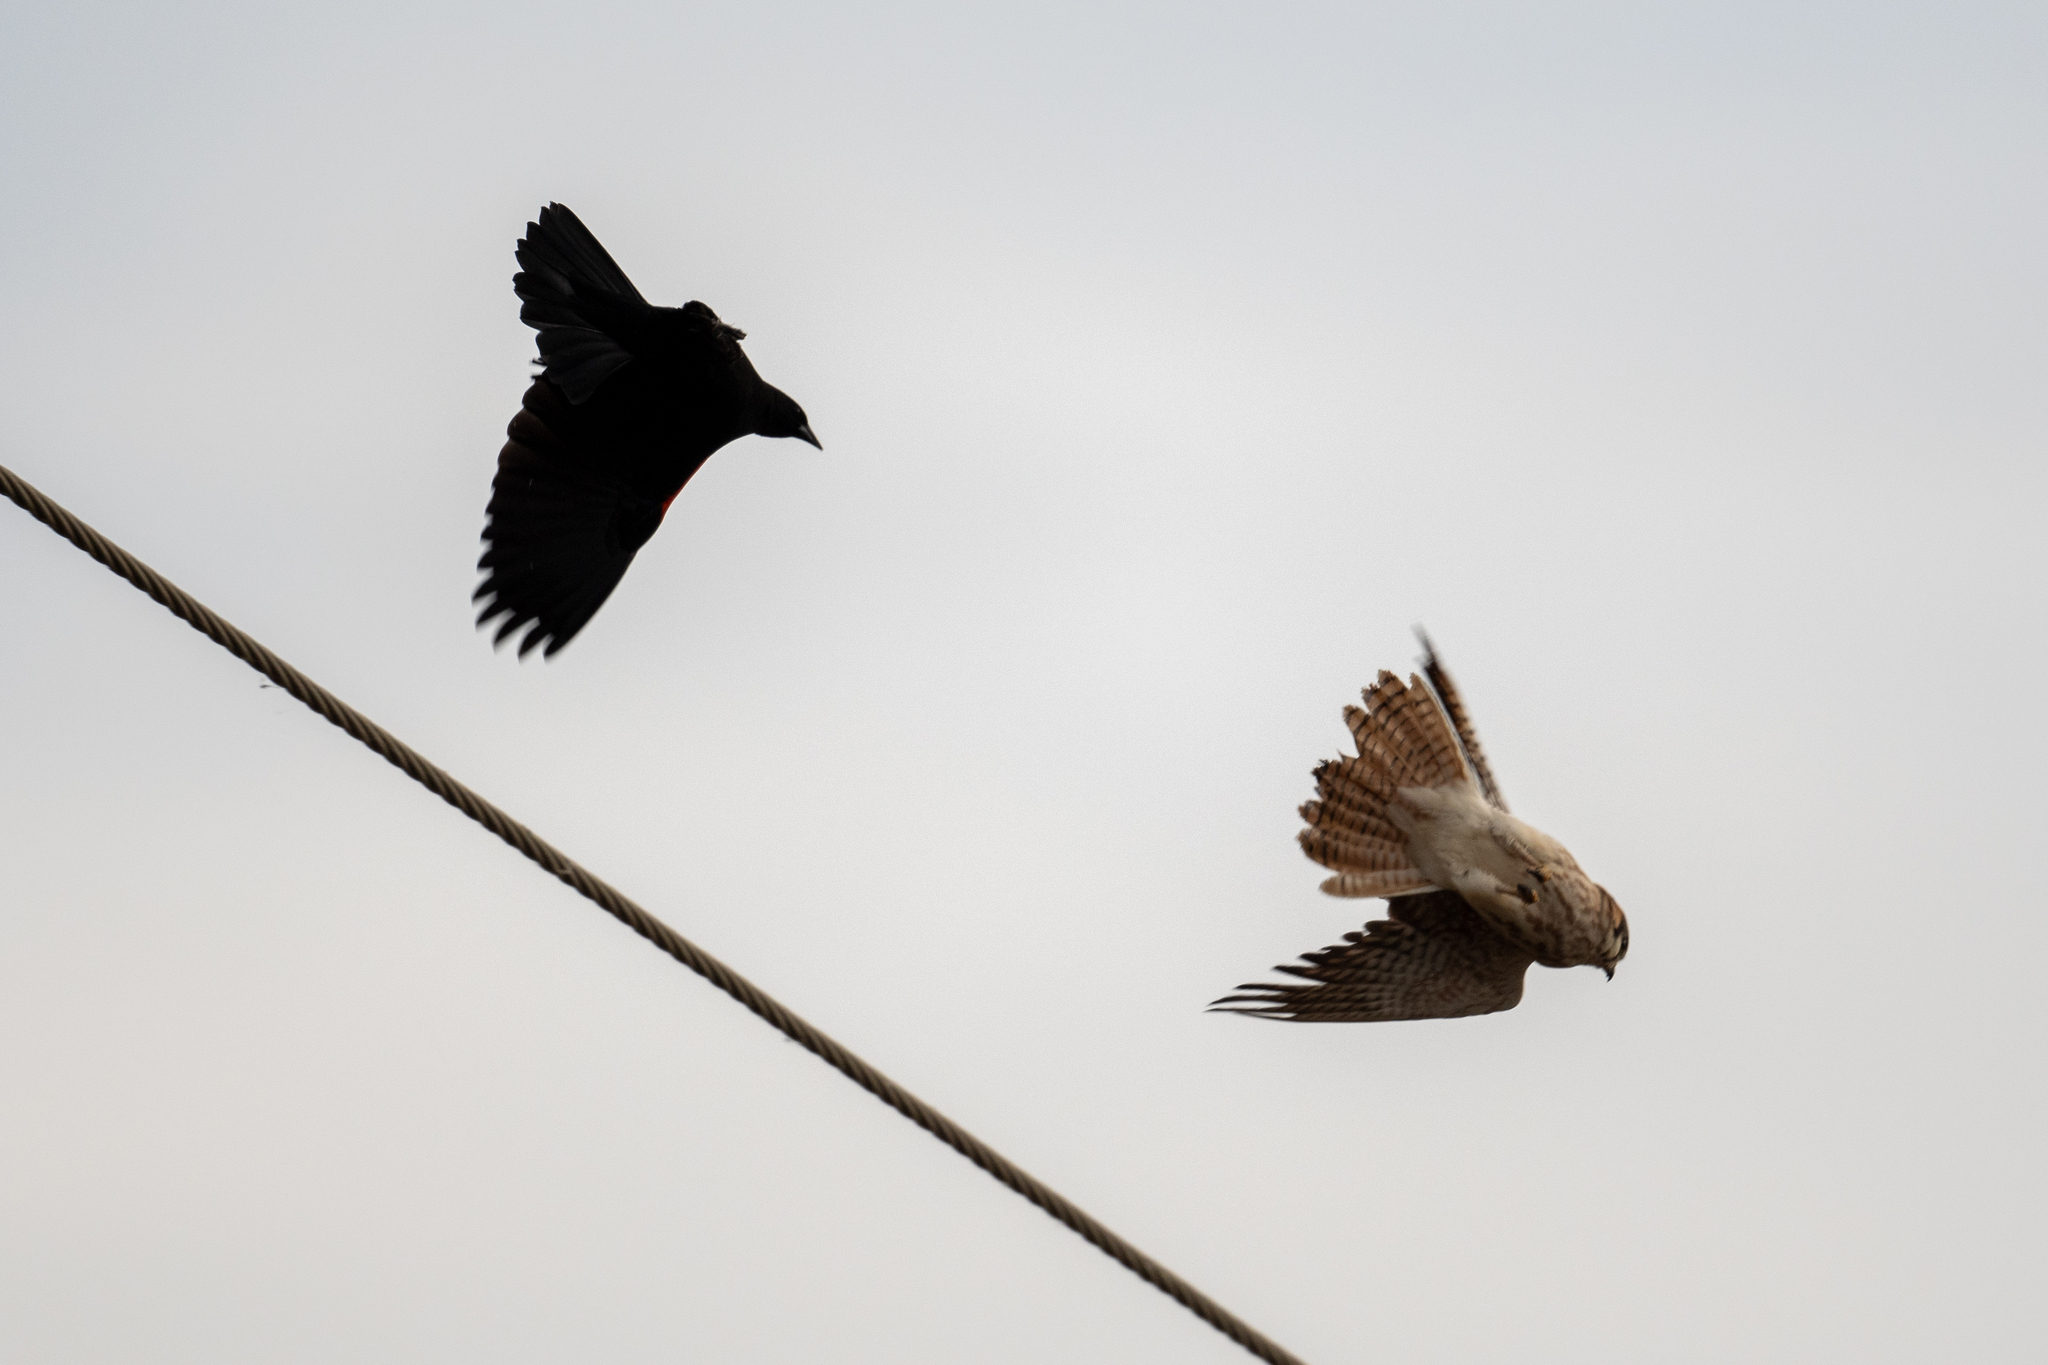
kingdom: Animalia
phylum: Chordata
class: Aves
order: Falconiformes
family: Falconidae
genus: Falco
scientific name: Falco sparverius
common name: American kestrel
